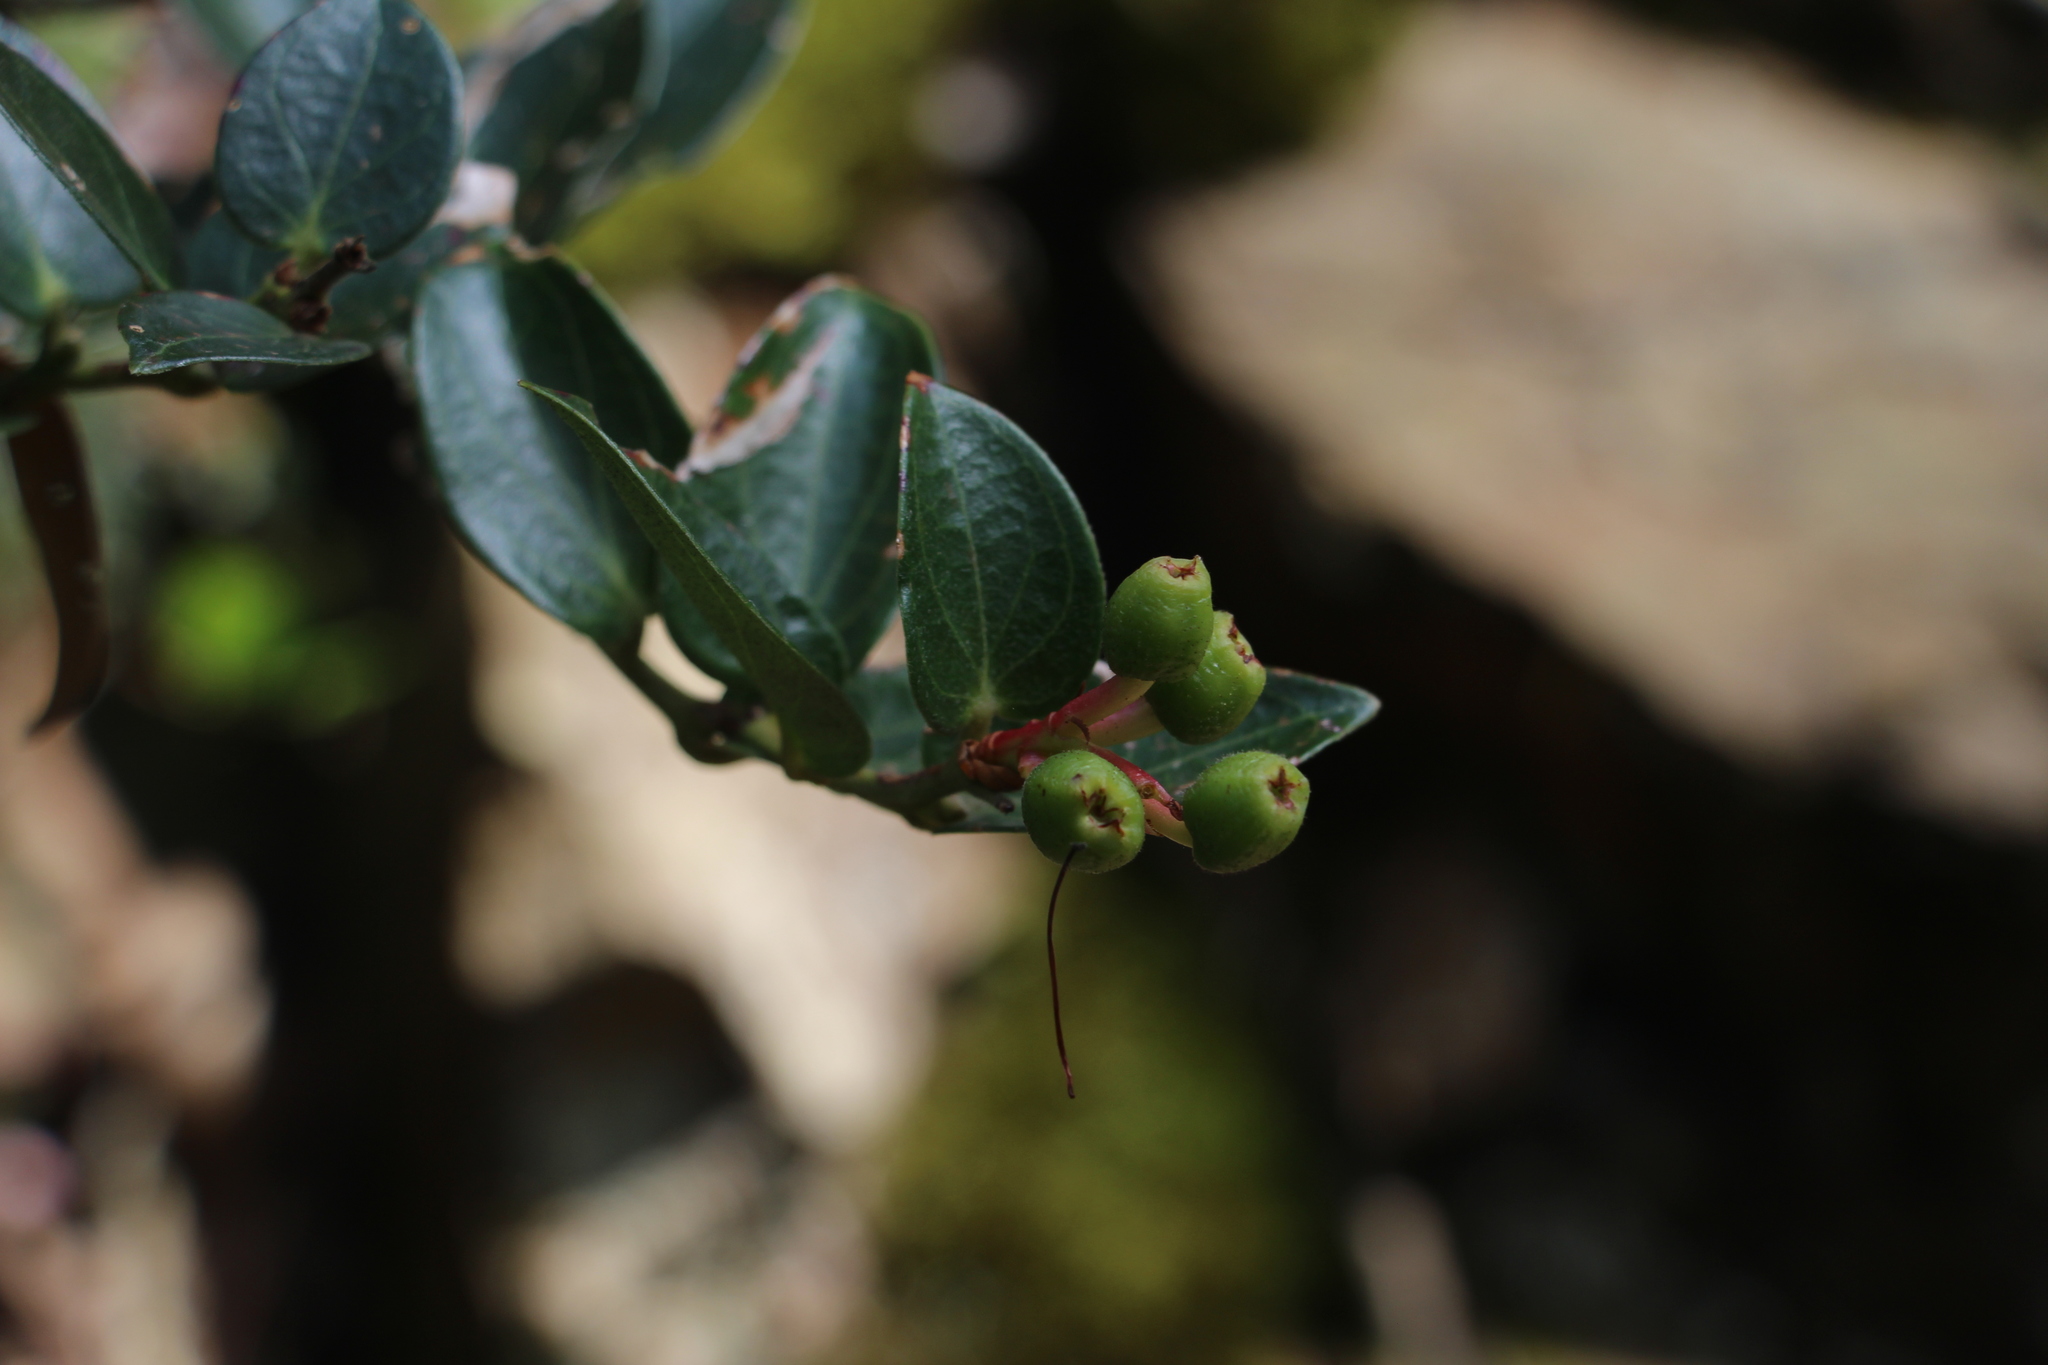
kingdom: Plantae
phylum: Tracheophyta
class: Magnoliopsida
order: Ericales
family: Ericaceae
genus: Cavendishia
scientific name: Cavendishia bracteata
